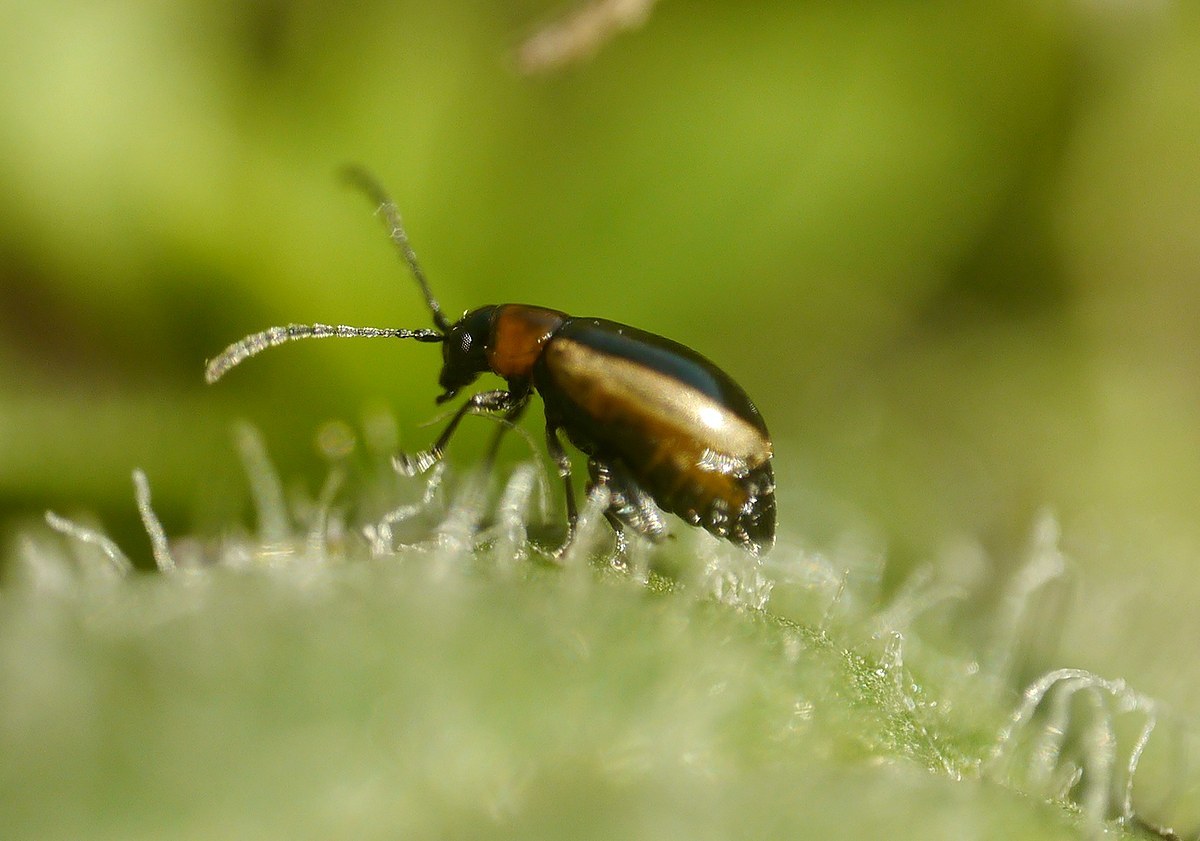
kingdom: Animalia
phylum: Arthropoda
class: Insecta
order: Coleoptera
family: Chrysomelidae
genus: Longitarsus
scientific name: Longitarsus dorsalis
